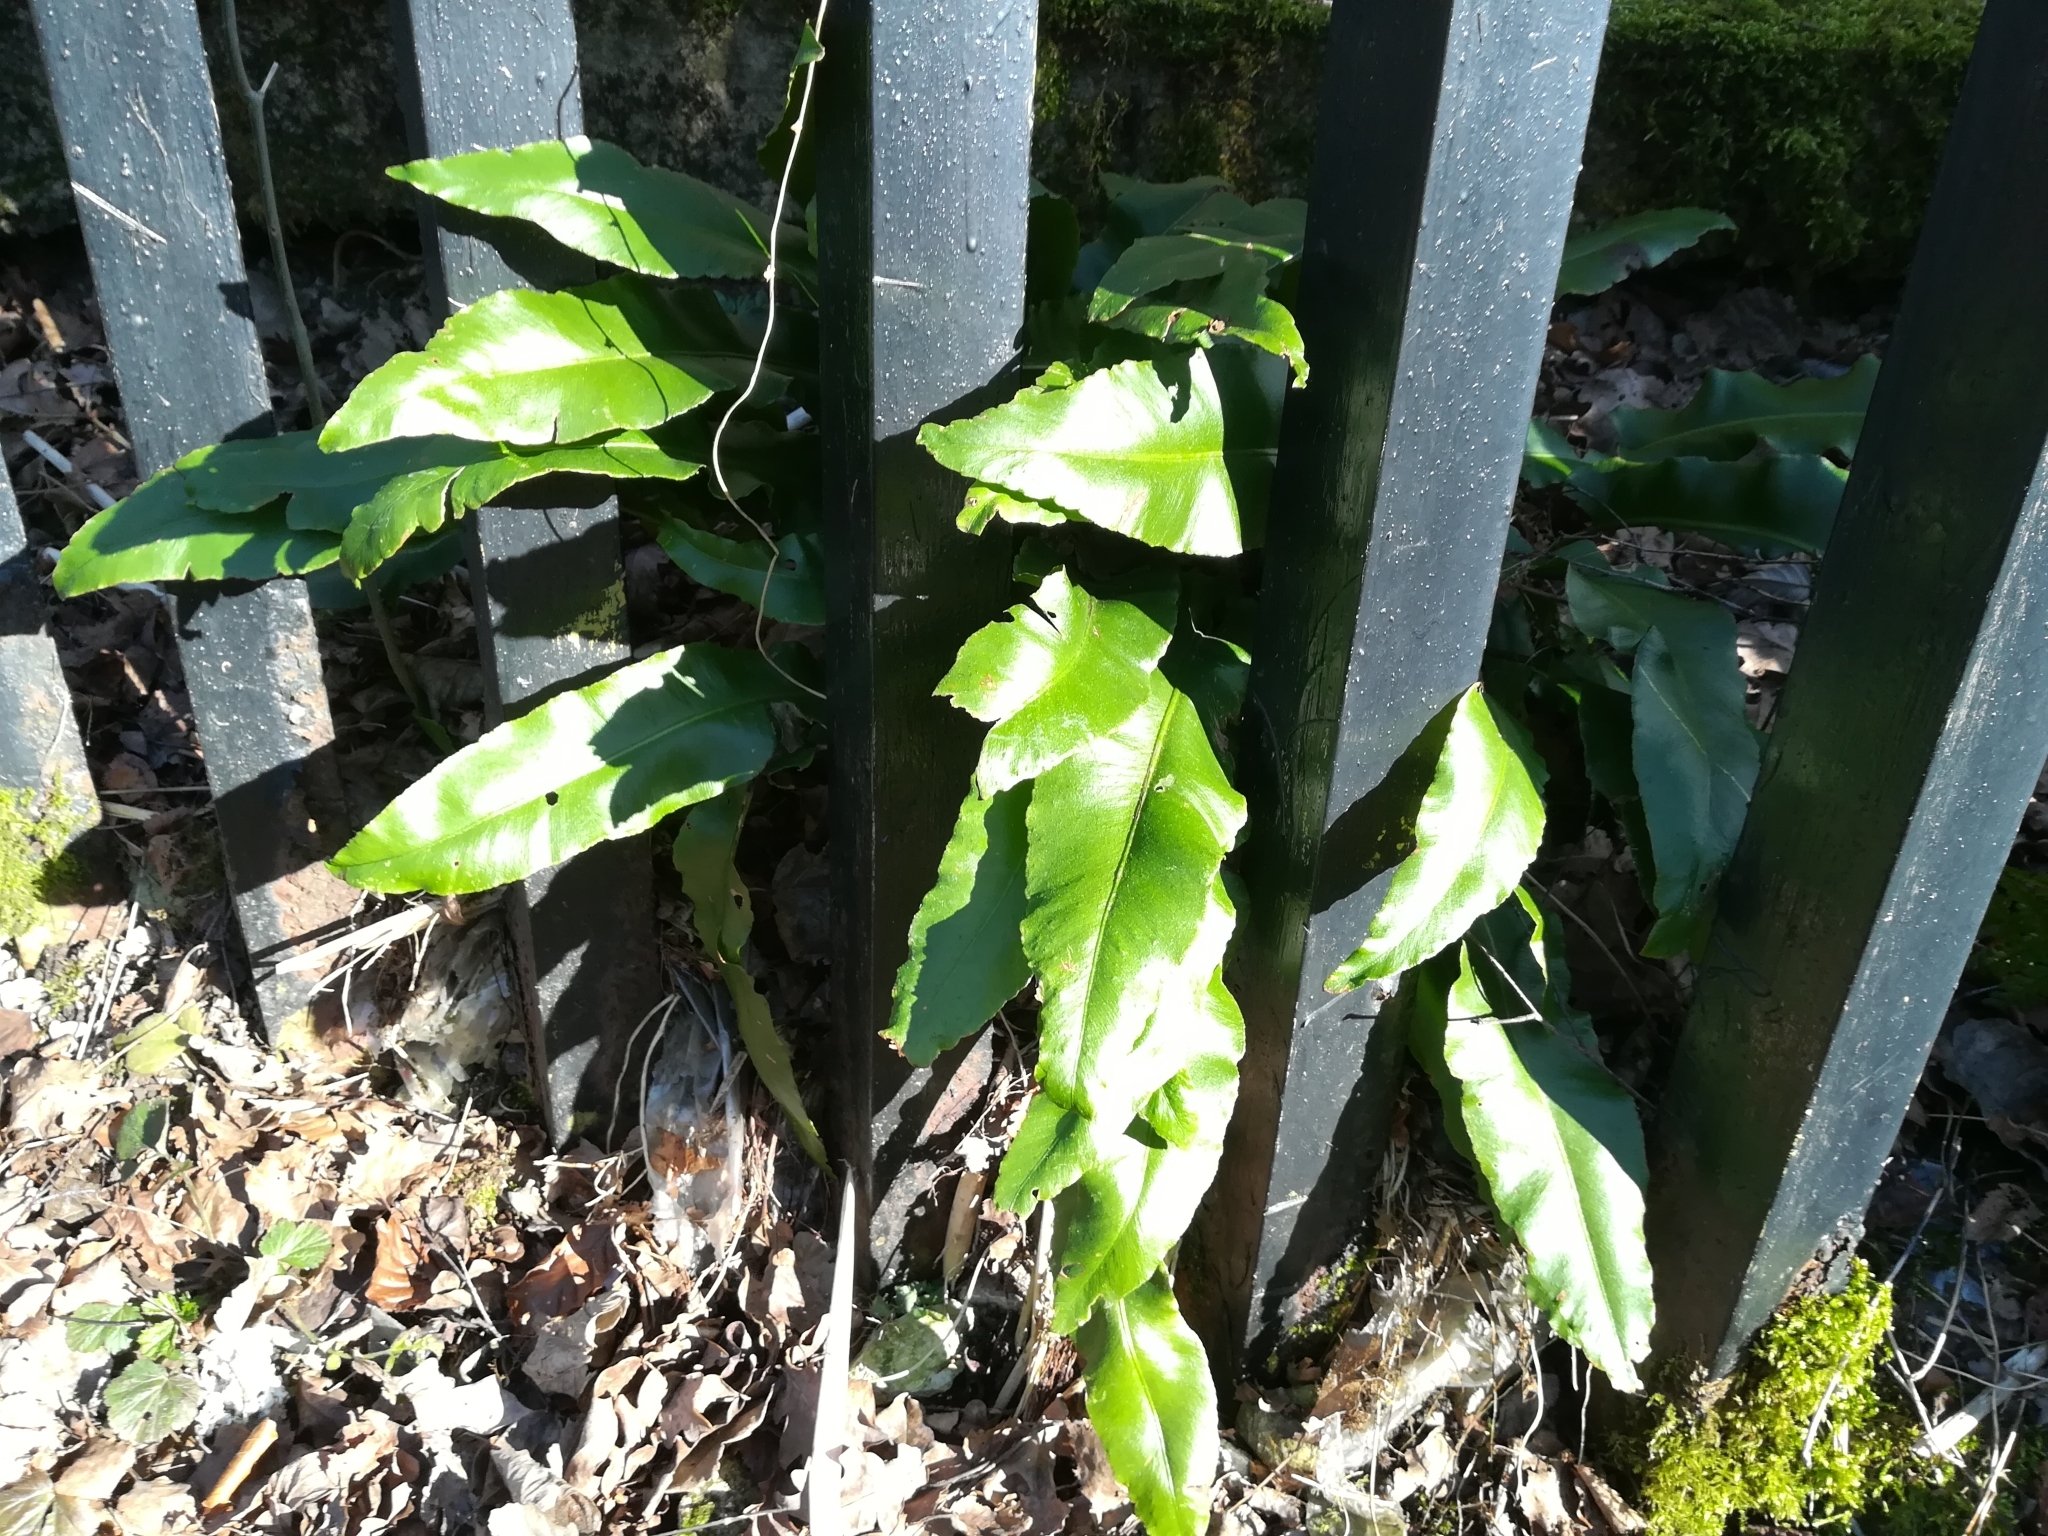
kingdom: Plantae
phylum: Tracheophyta
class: Polypodiopsida
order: Polypodiales
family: Aspleniaceae
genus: Asplenium
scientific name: Asplenium scolopendrium
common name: Hart's-tongue fern
